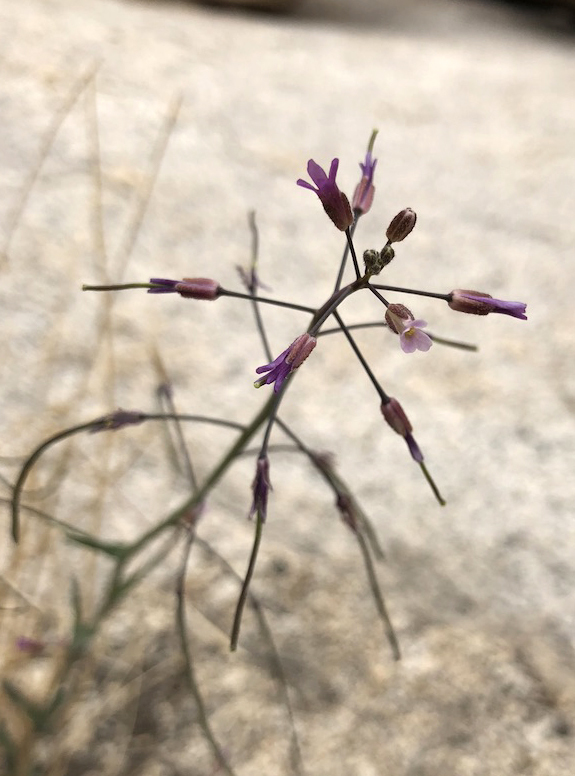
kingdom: Plantae
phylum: Tracheophyta
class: Magnoliopsida
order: Brassicales
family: Brassicaceae
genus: Boechera
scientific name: Boechera perennans
